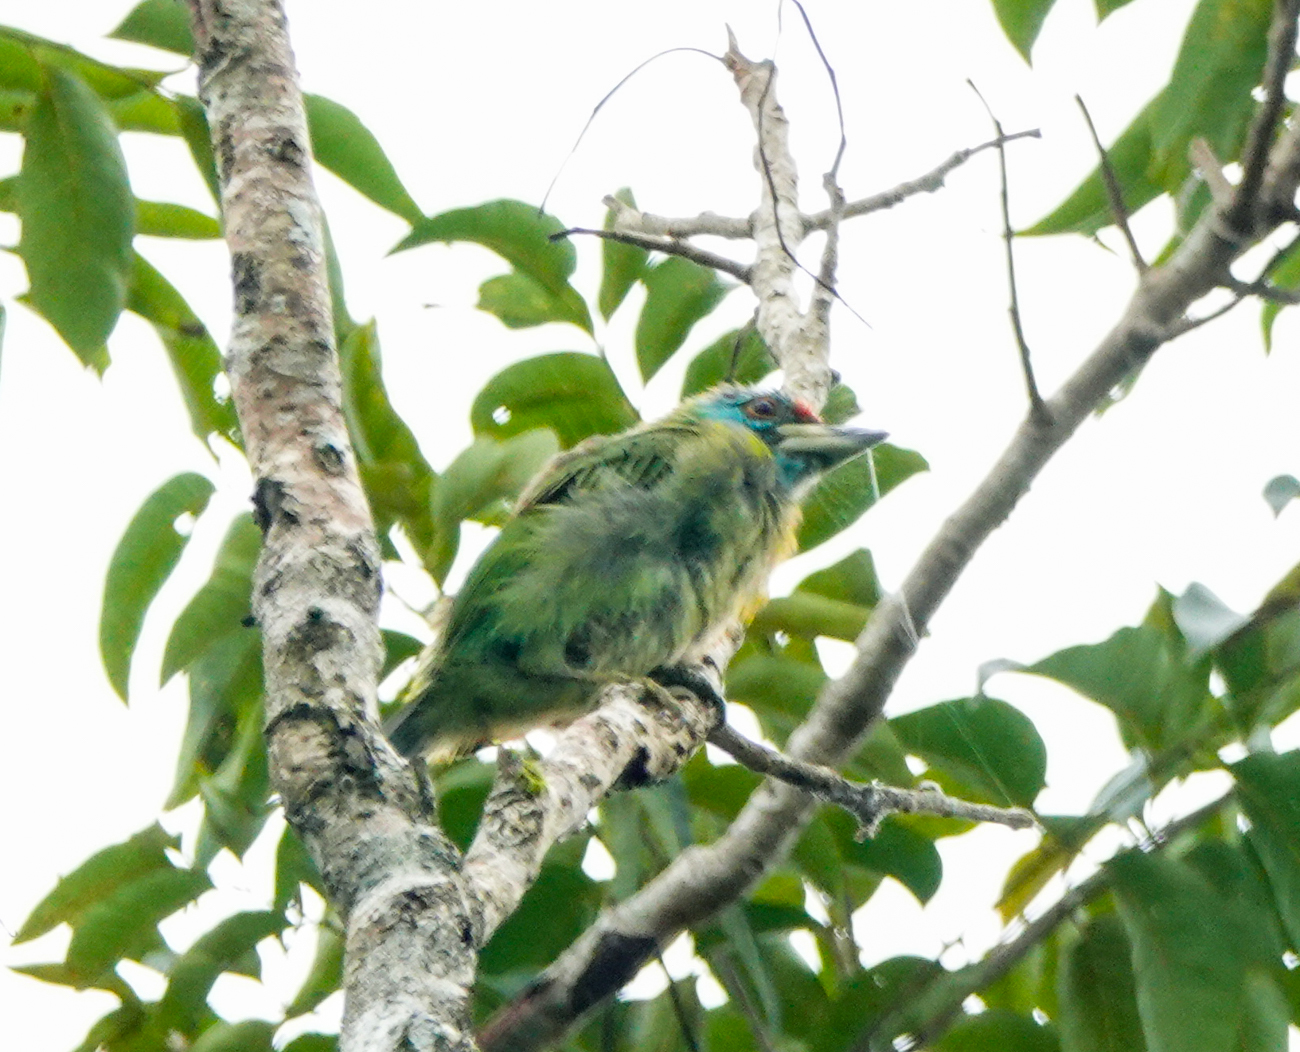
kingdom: Animalia
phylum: Chordata
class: Aves
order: Piciformes
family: Megalaimidae
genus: Psilopogon
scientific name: Psilopogon asiaticus
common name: Blue-throated barbet
